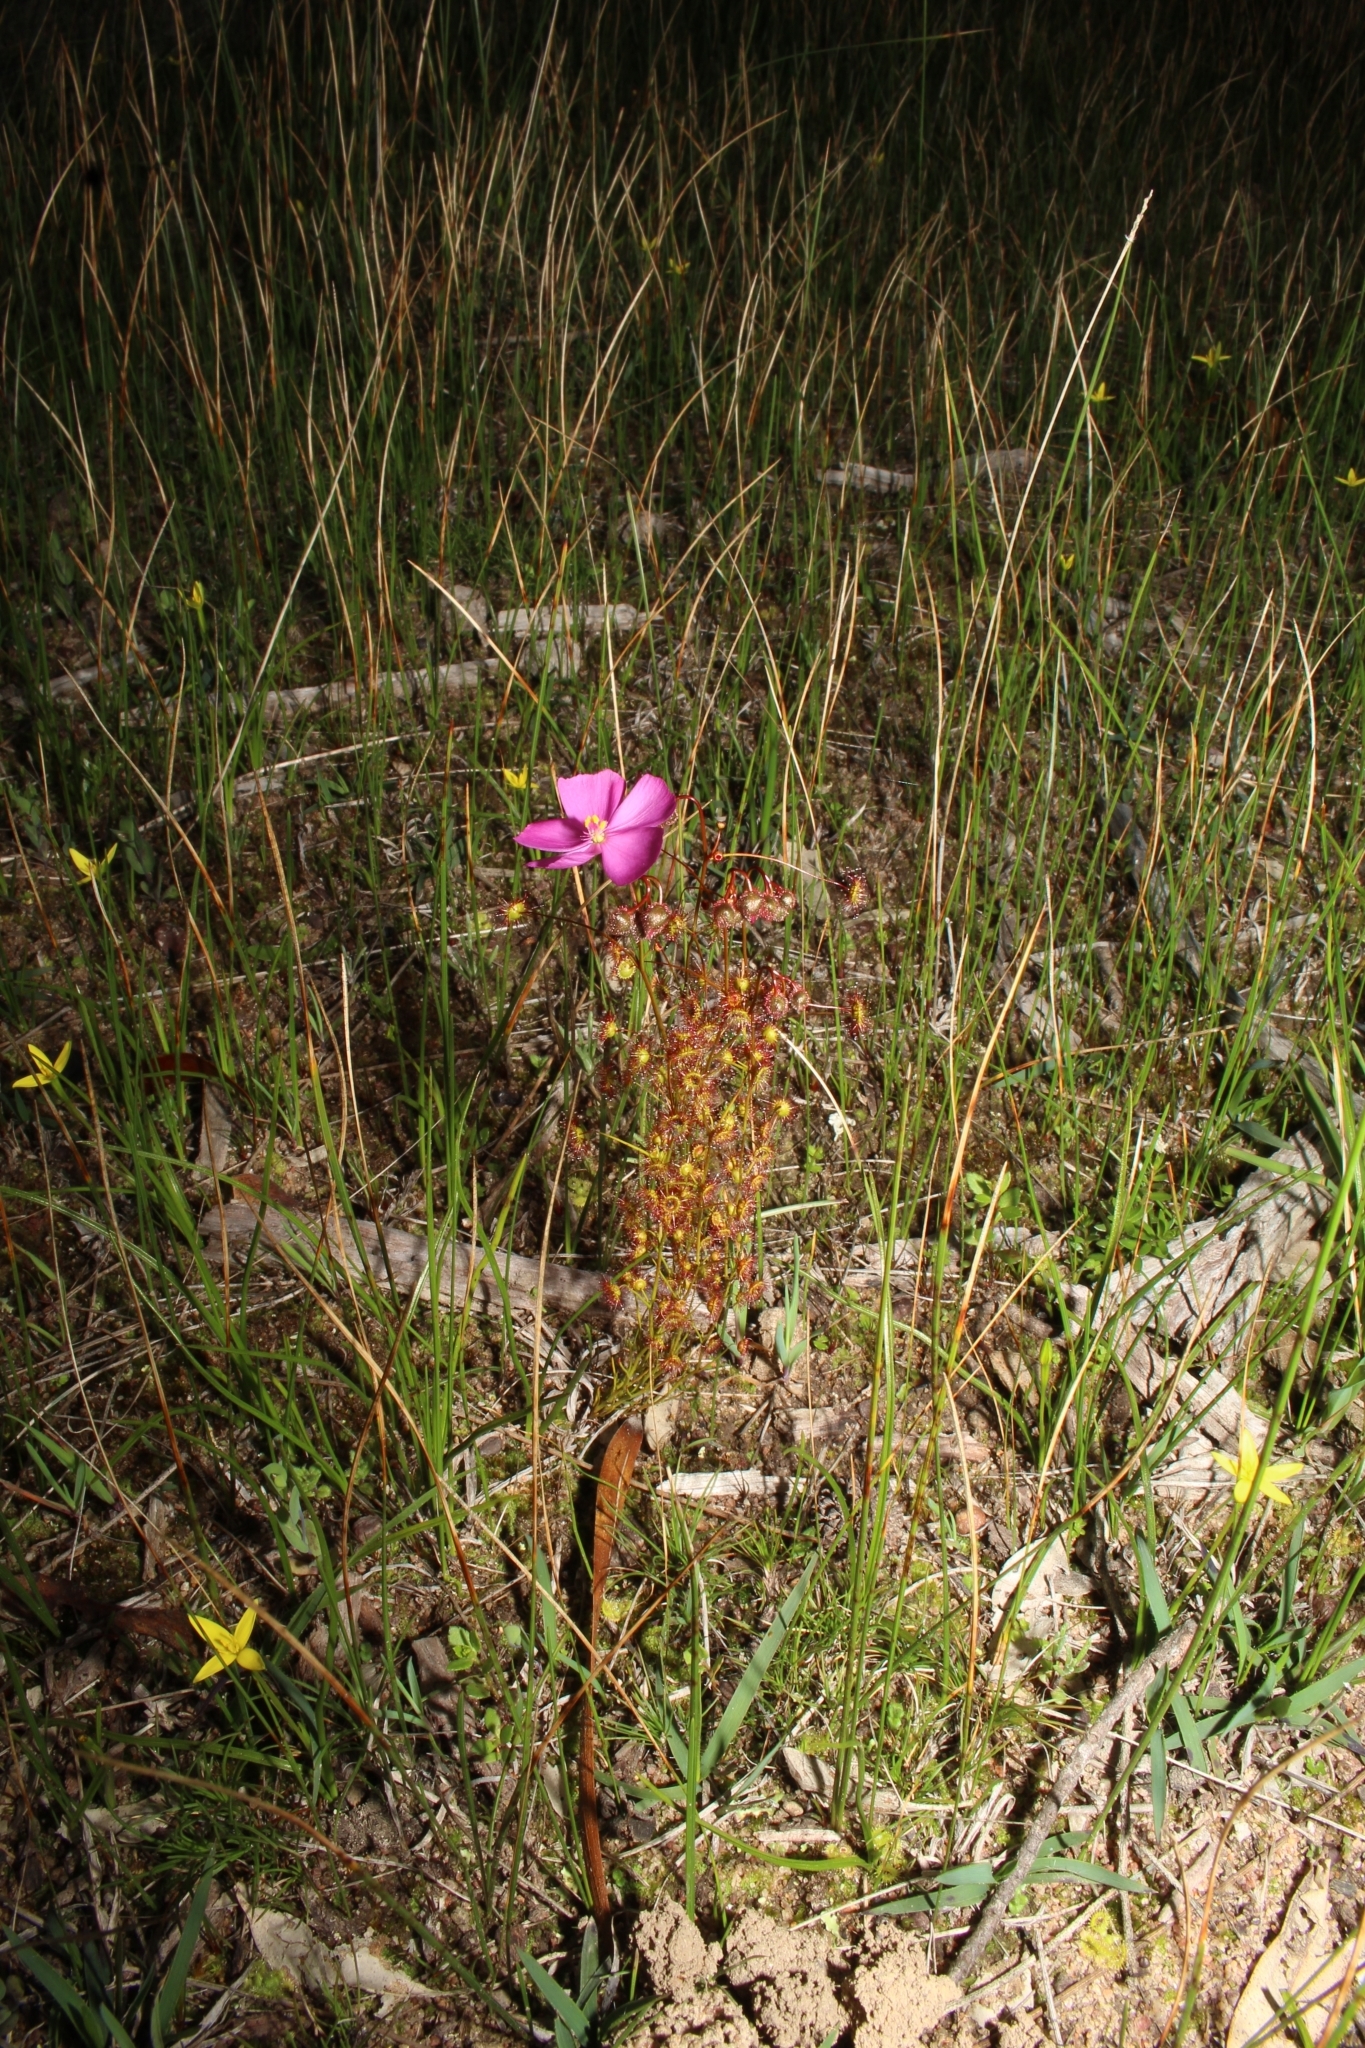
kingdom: Plantae
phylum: Tracheophyta
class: Magnoliopsida
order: Caryophyllales
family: Droseraceae
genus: Drosera
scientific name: Drosera menziesii
